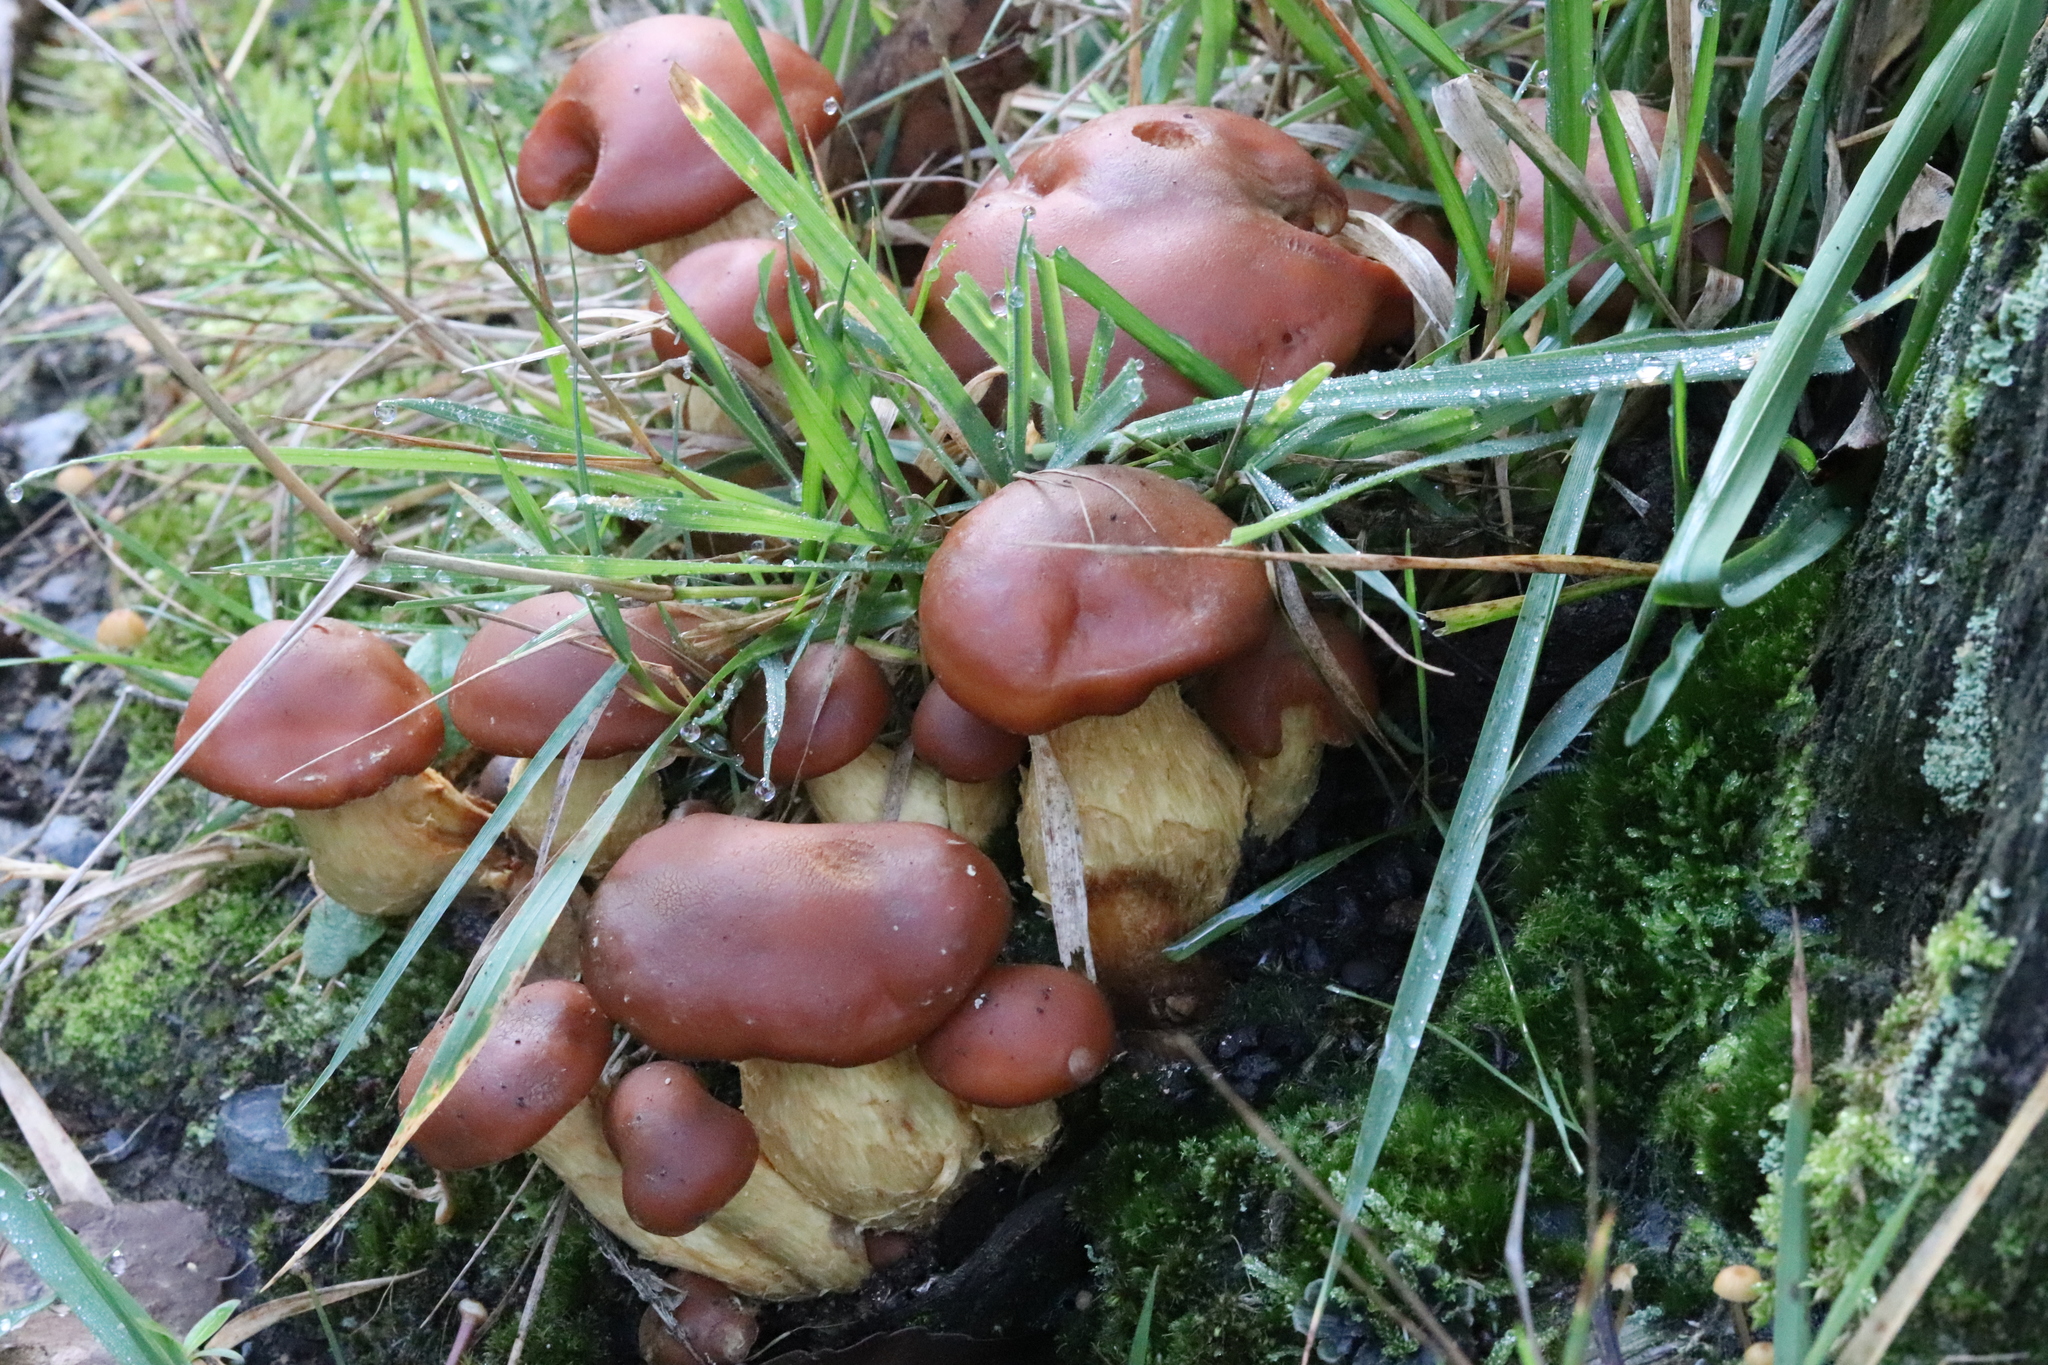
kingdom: Fungi
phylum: Basidiomycota
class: Agaricomycetes
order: Agaricales
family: Hymenogastraceae
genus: Gymnopilus
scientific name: Gymnopilus junonius
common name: Spectacular rustgill
